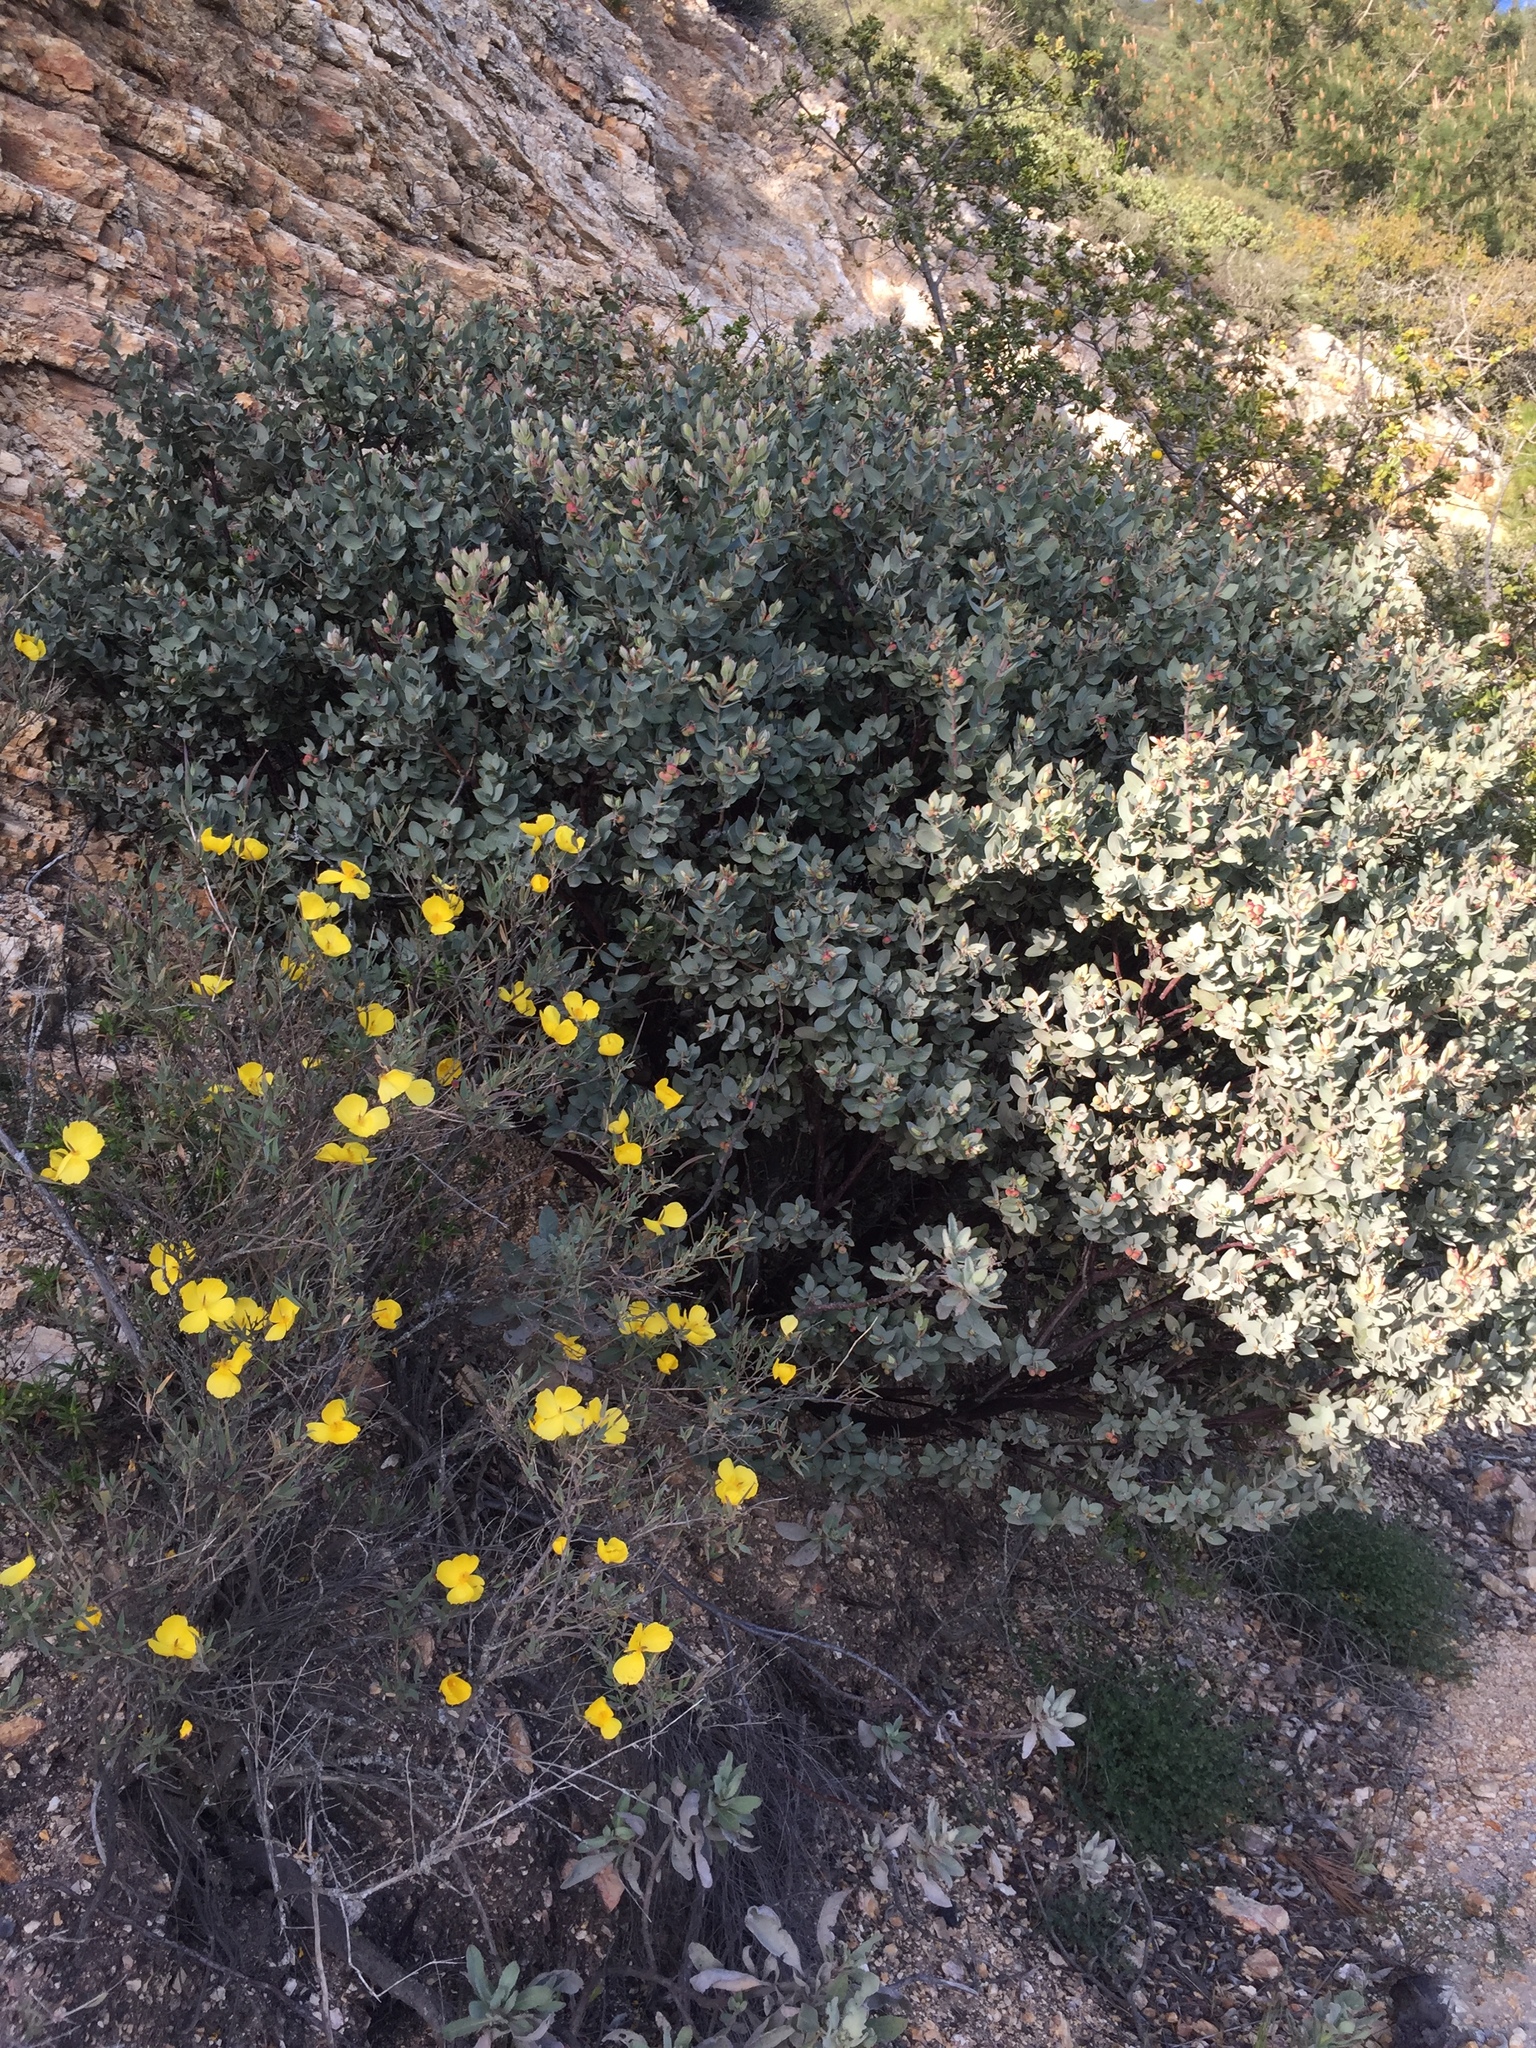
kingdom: Plantae
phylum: Tracheophyta
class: Magnoliopsida
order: Ericales
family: Ericaceae
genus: Arctostaphylos
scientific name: Arctostaphylos luciana
